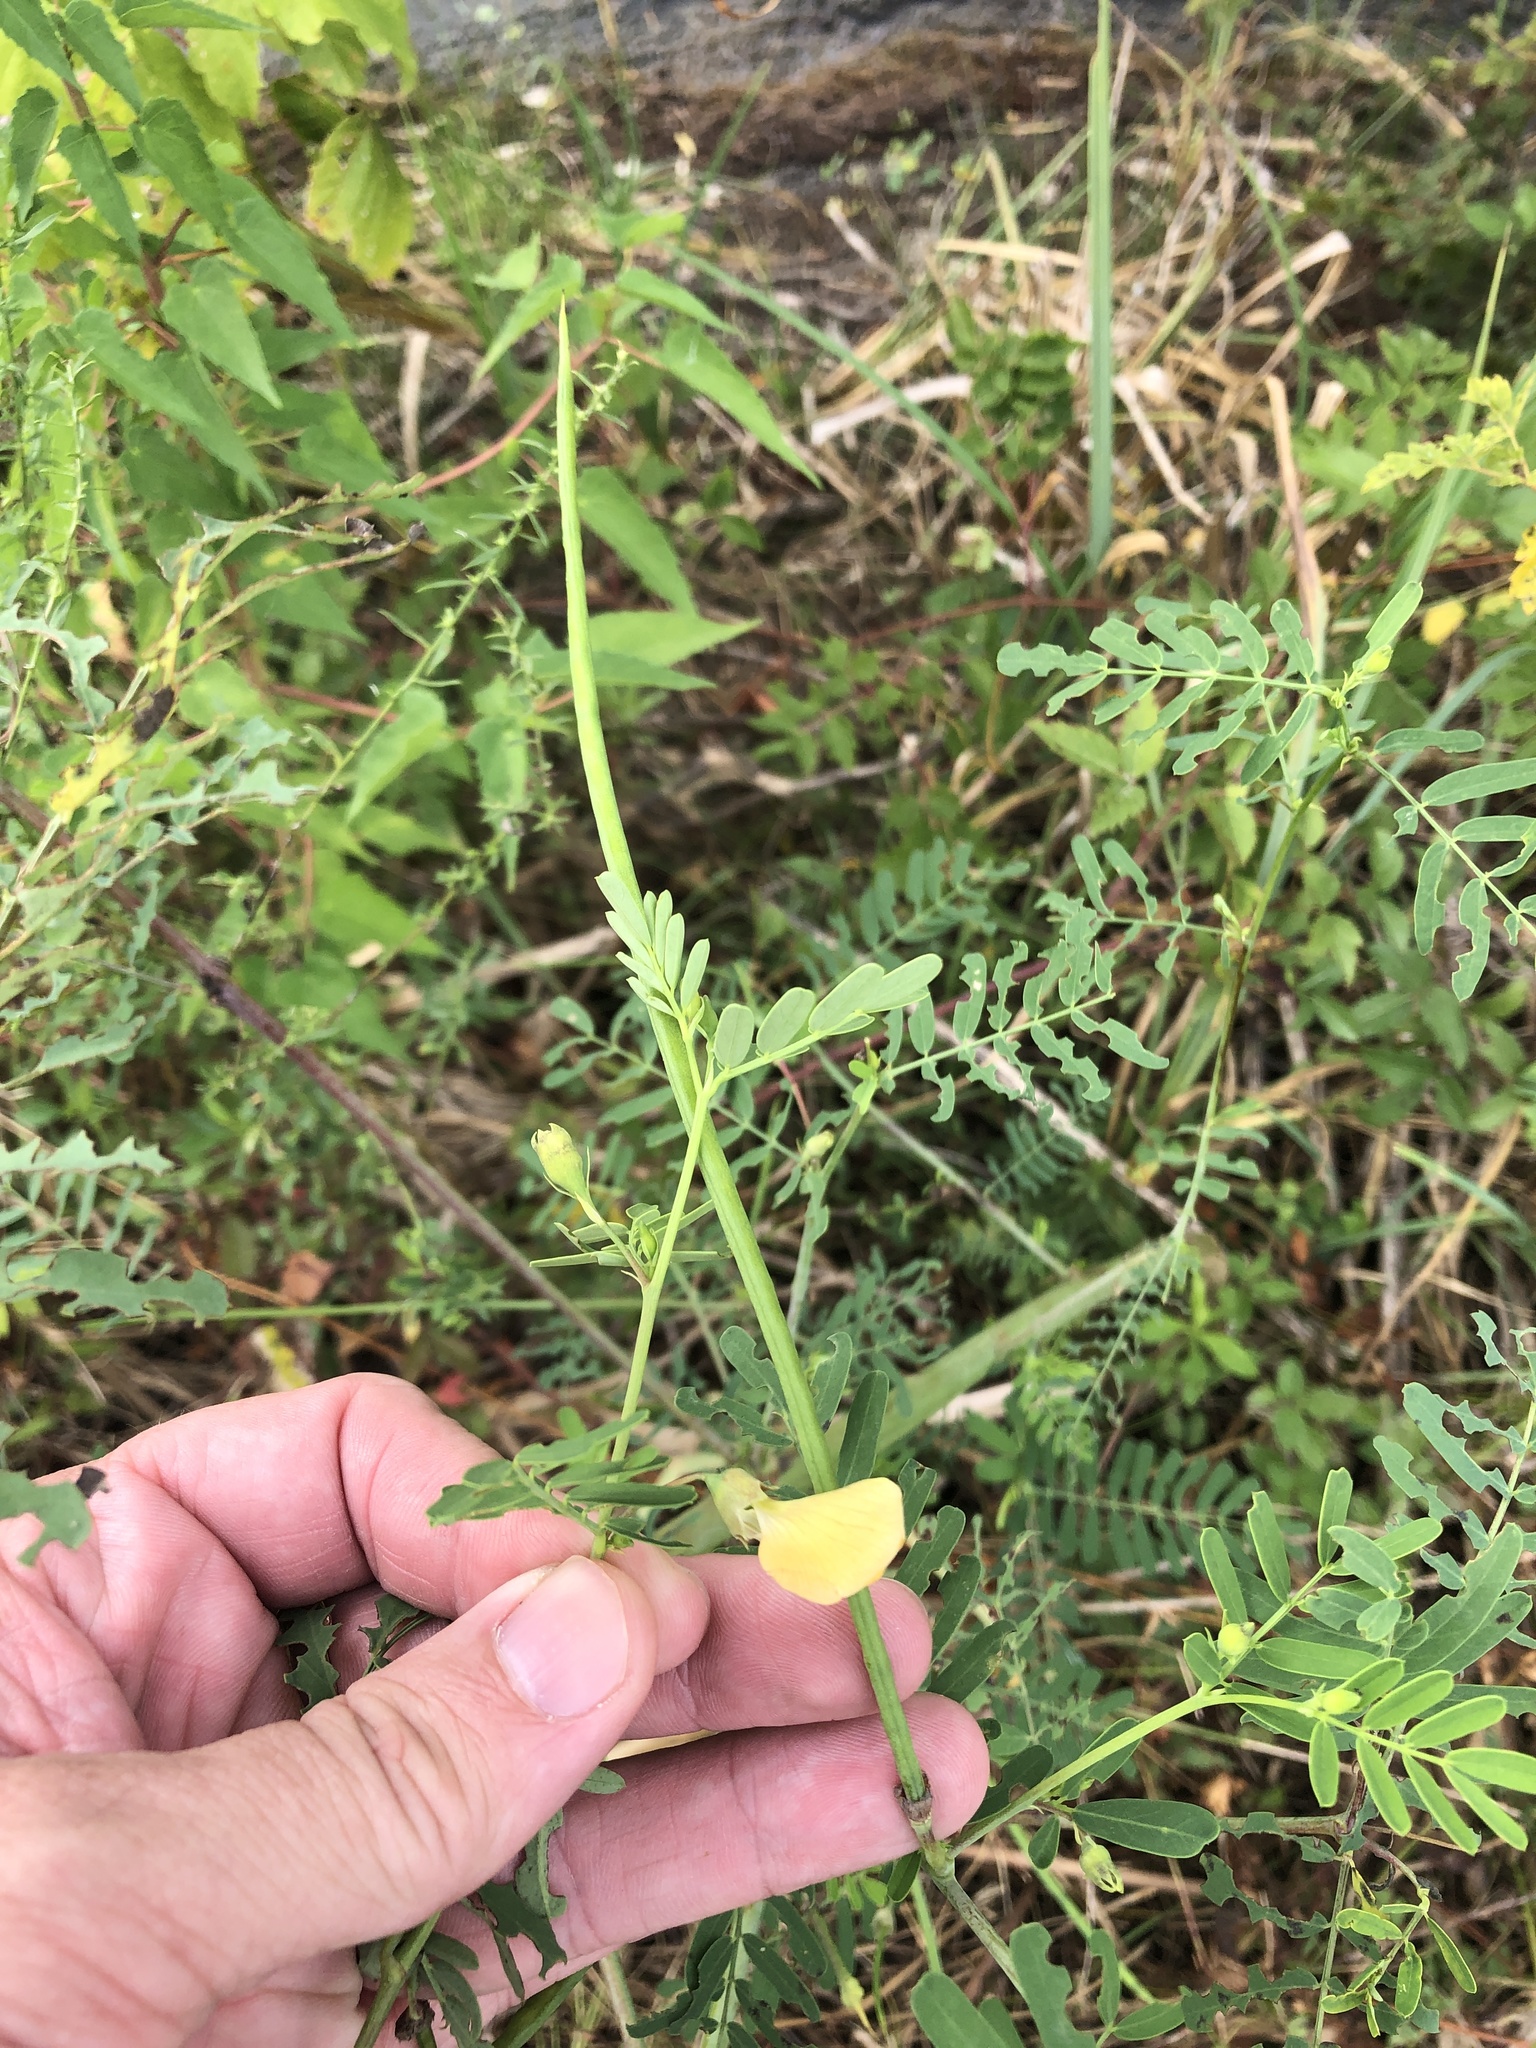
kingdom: Plantae
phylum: Tracheophyta
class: Magnoliopsida
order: Fabales
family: Fabaceae
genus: Sesbania
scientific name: Sesbania herbacea
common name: Bigpod sesbania
